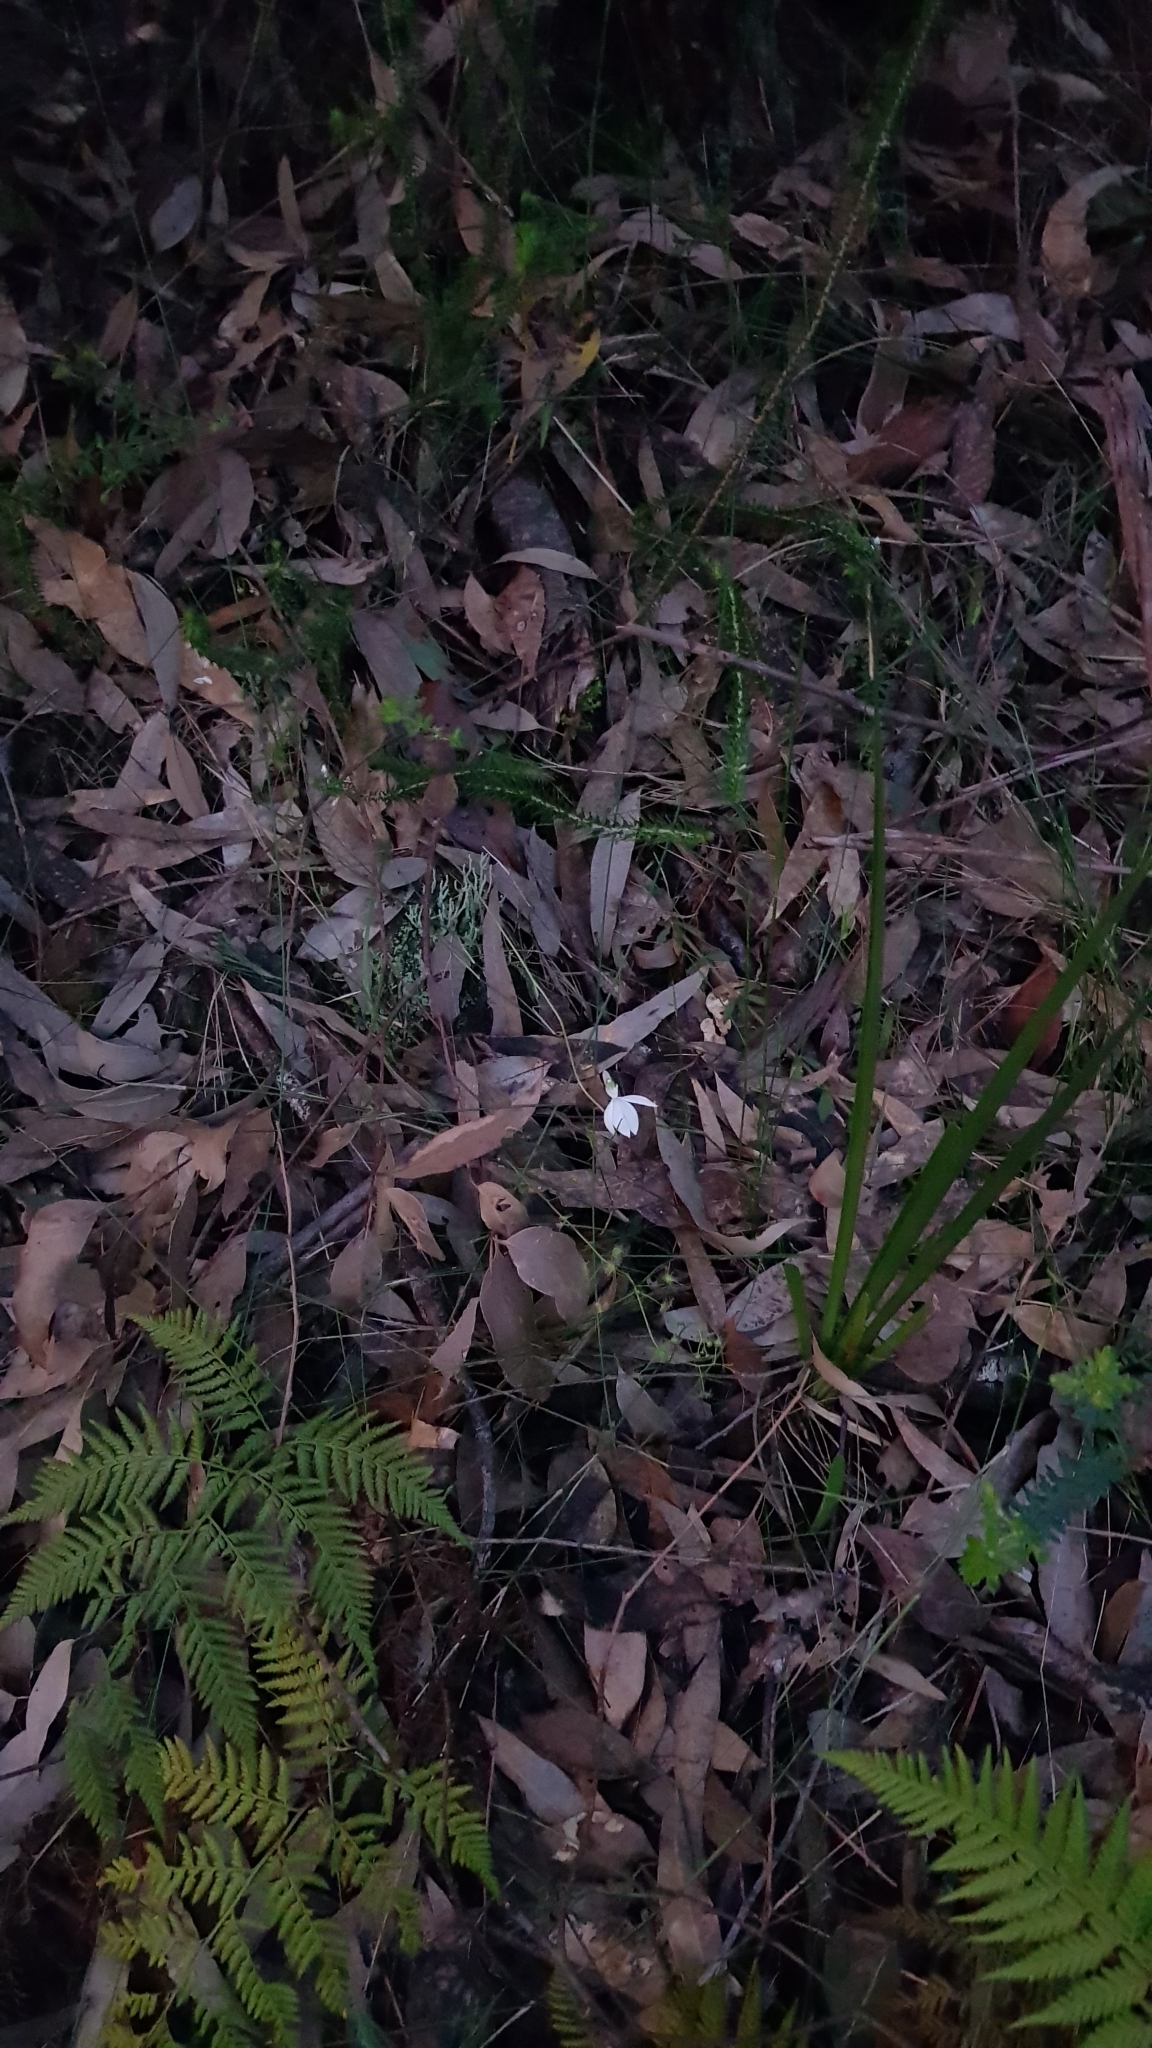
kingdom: Plantae
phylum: Tracheophyta
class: Liliopsida
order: Asparagales
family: Orchidaceae
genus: Caladenia
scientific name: Caladenia catenata
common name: White caladenia
